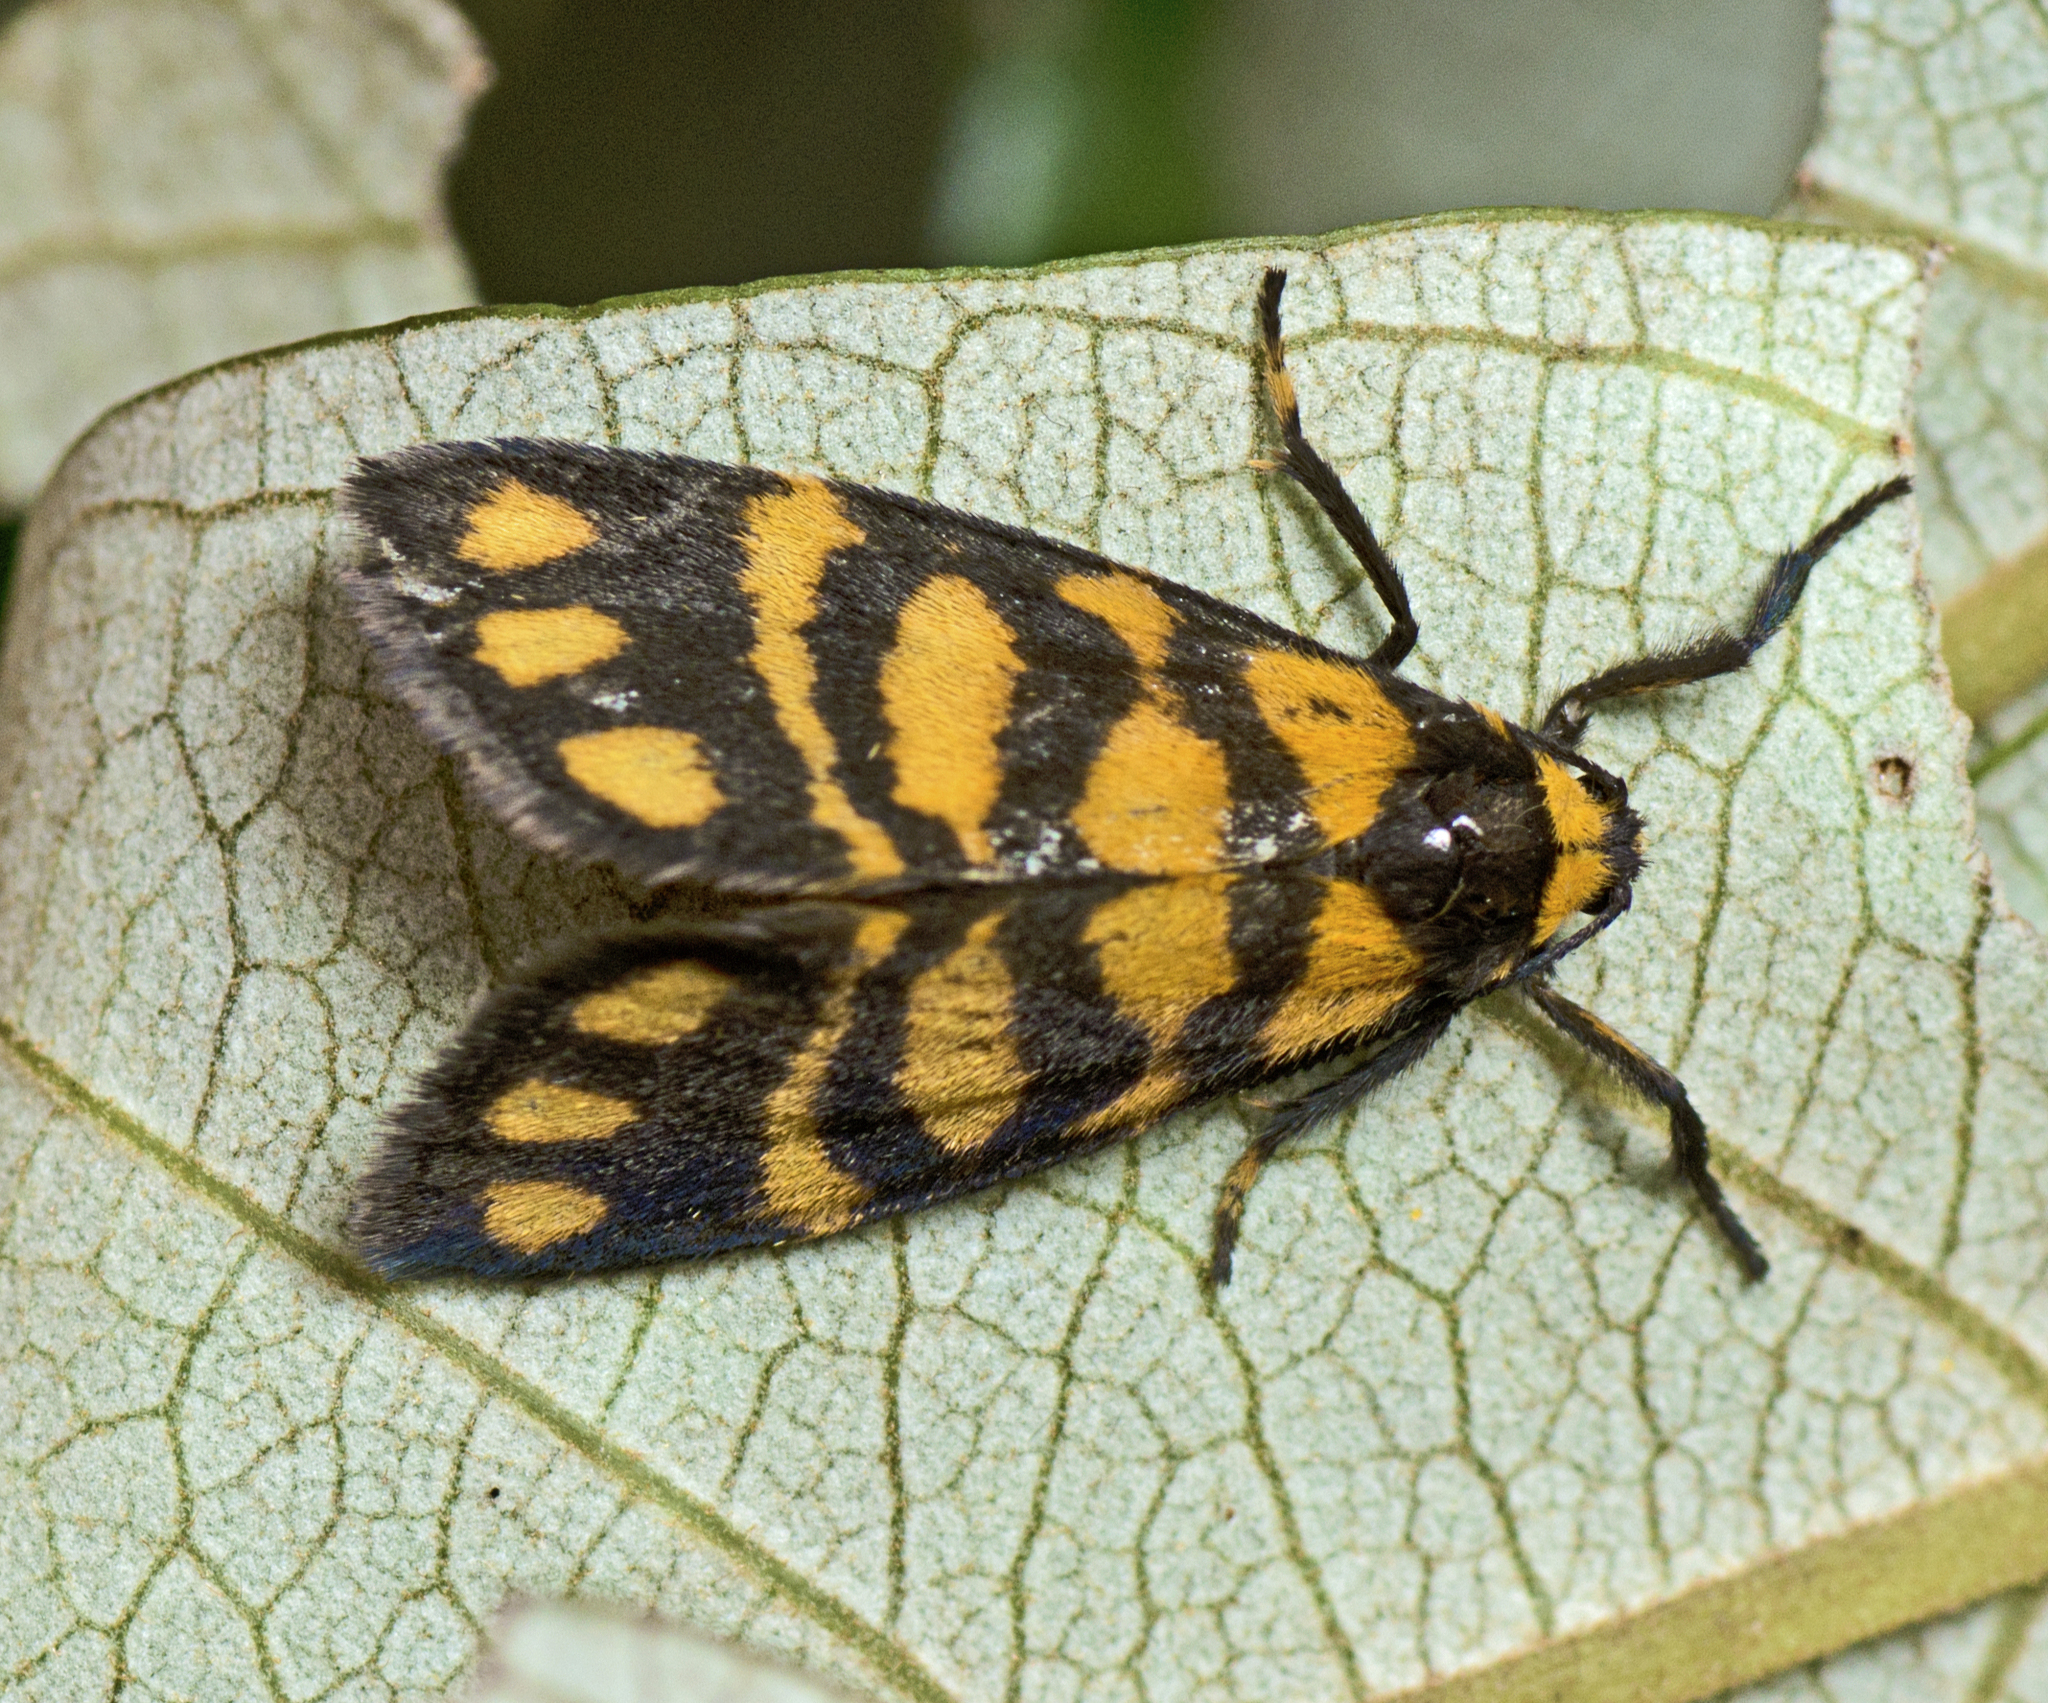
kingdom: Animalia
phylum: Arthropoda
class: Insecta
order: Lepidoptera
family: Erebidae
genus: Asura
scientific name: Asura lydia
